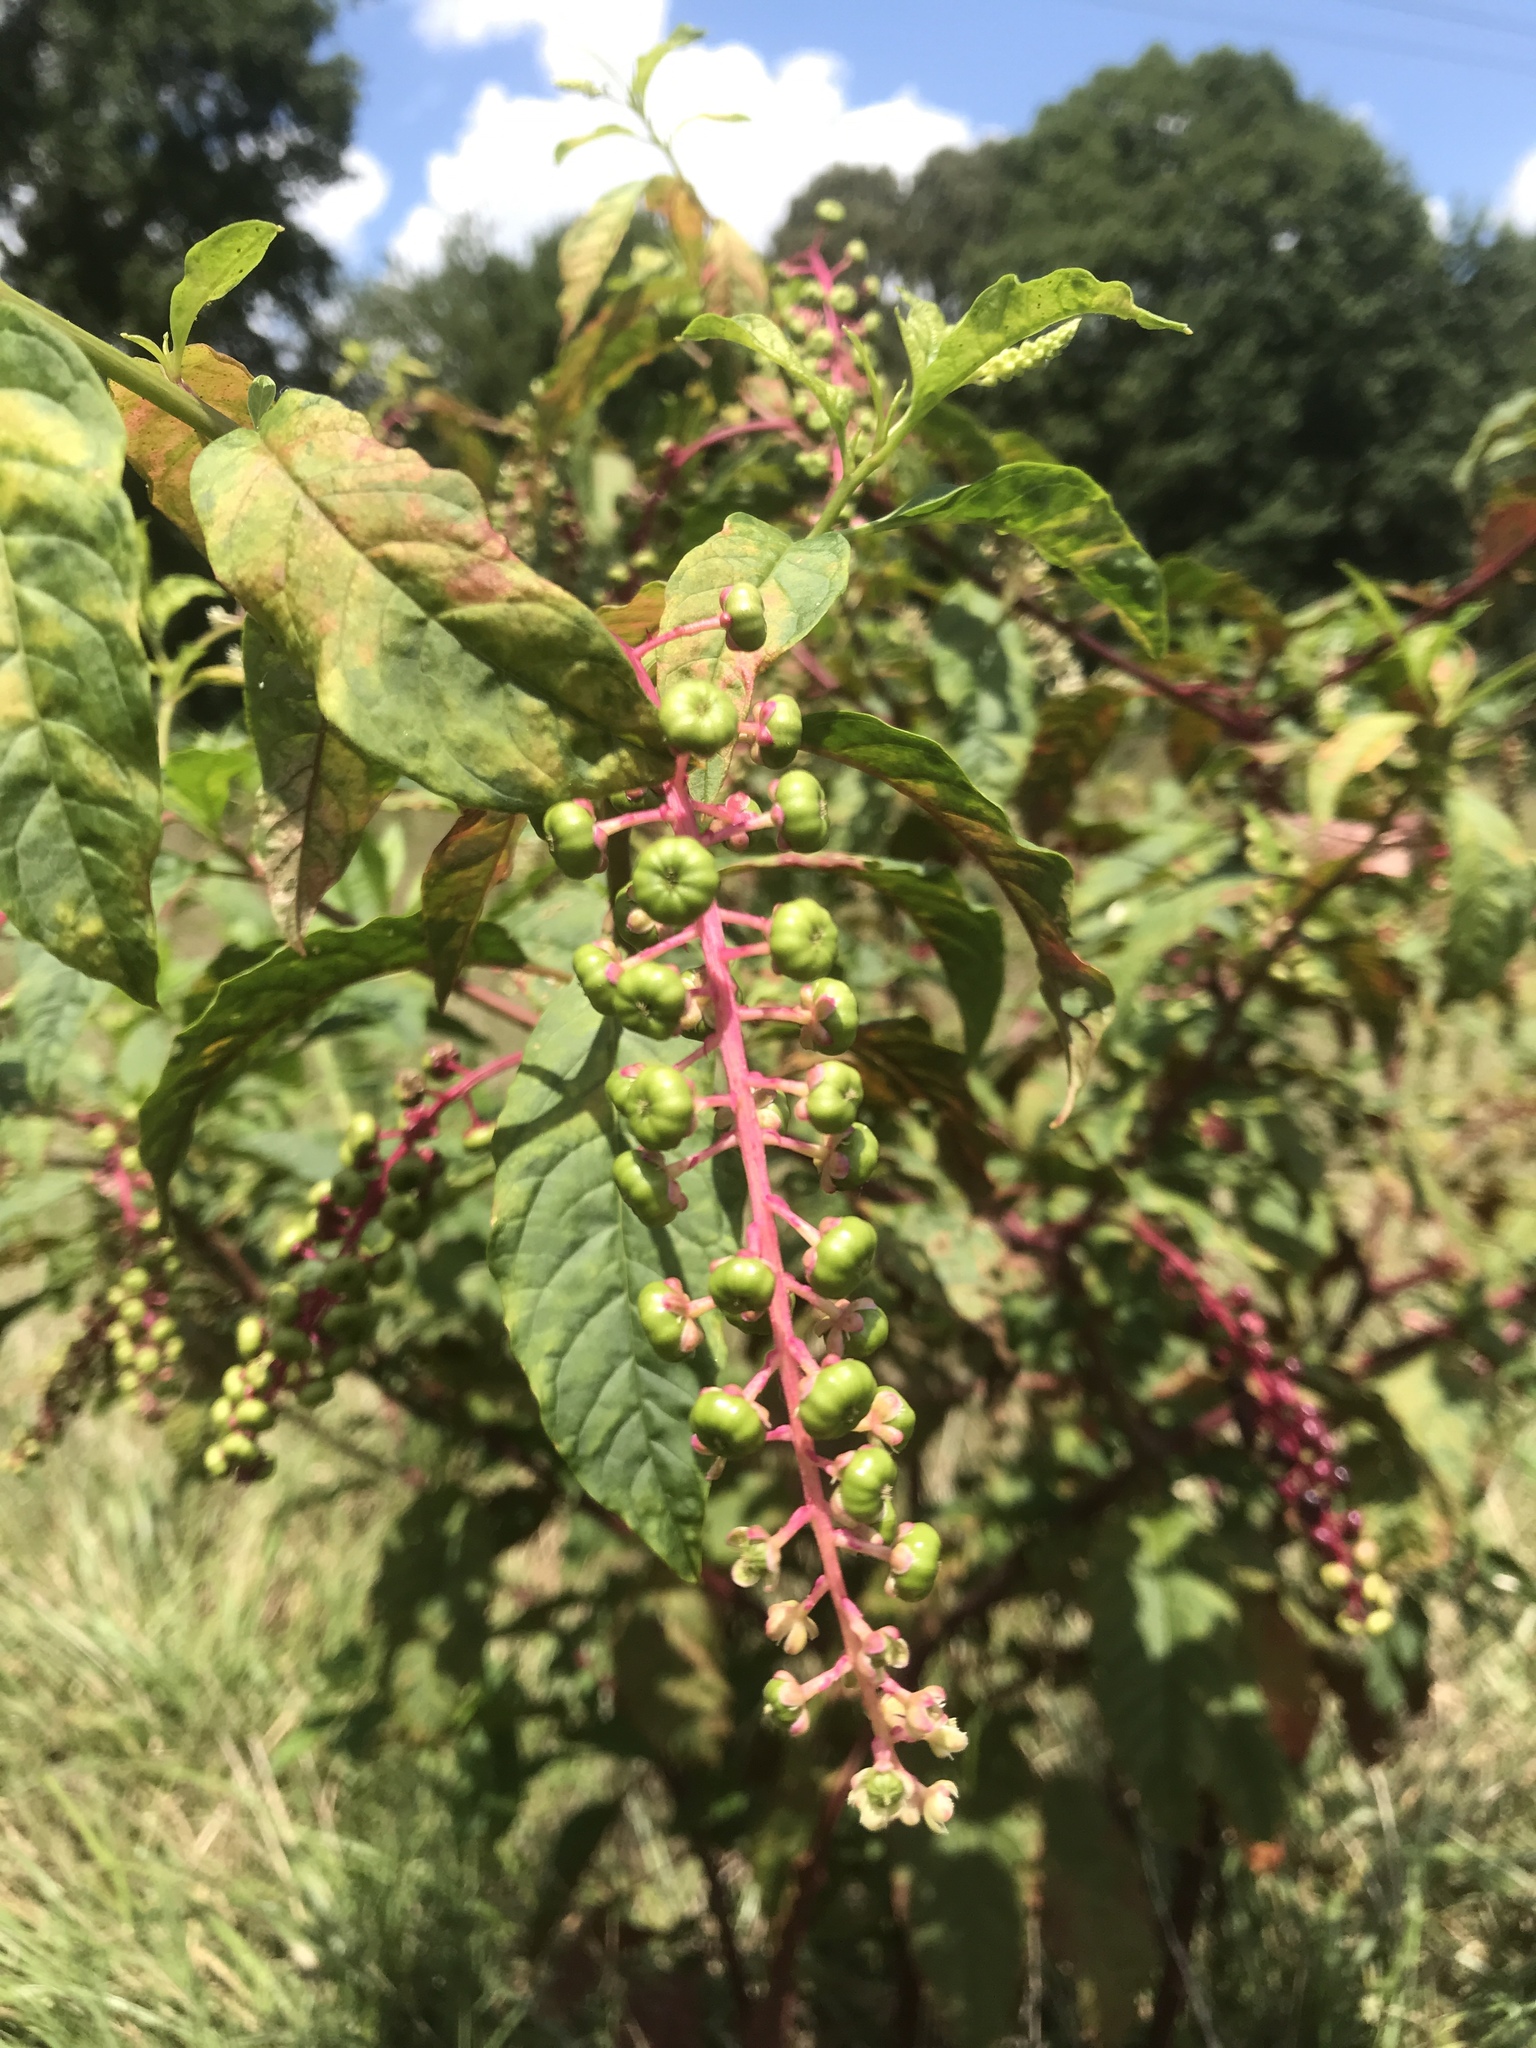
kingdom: Plantae
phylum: Tracheophyta
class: Magnoliopsida
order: Caryophyllales
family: Phytolaccaceae
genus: Phytolacca
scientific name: Phytolacca americana
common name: American pokeweed
